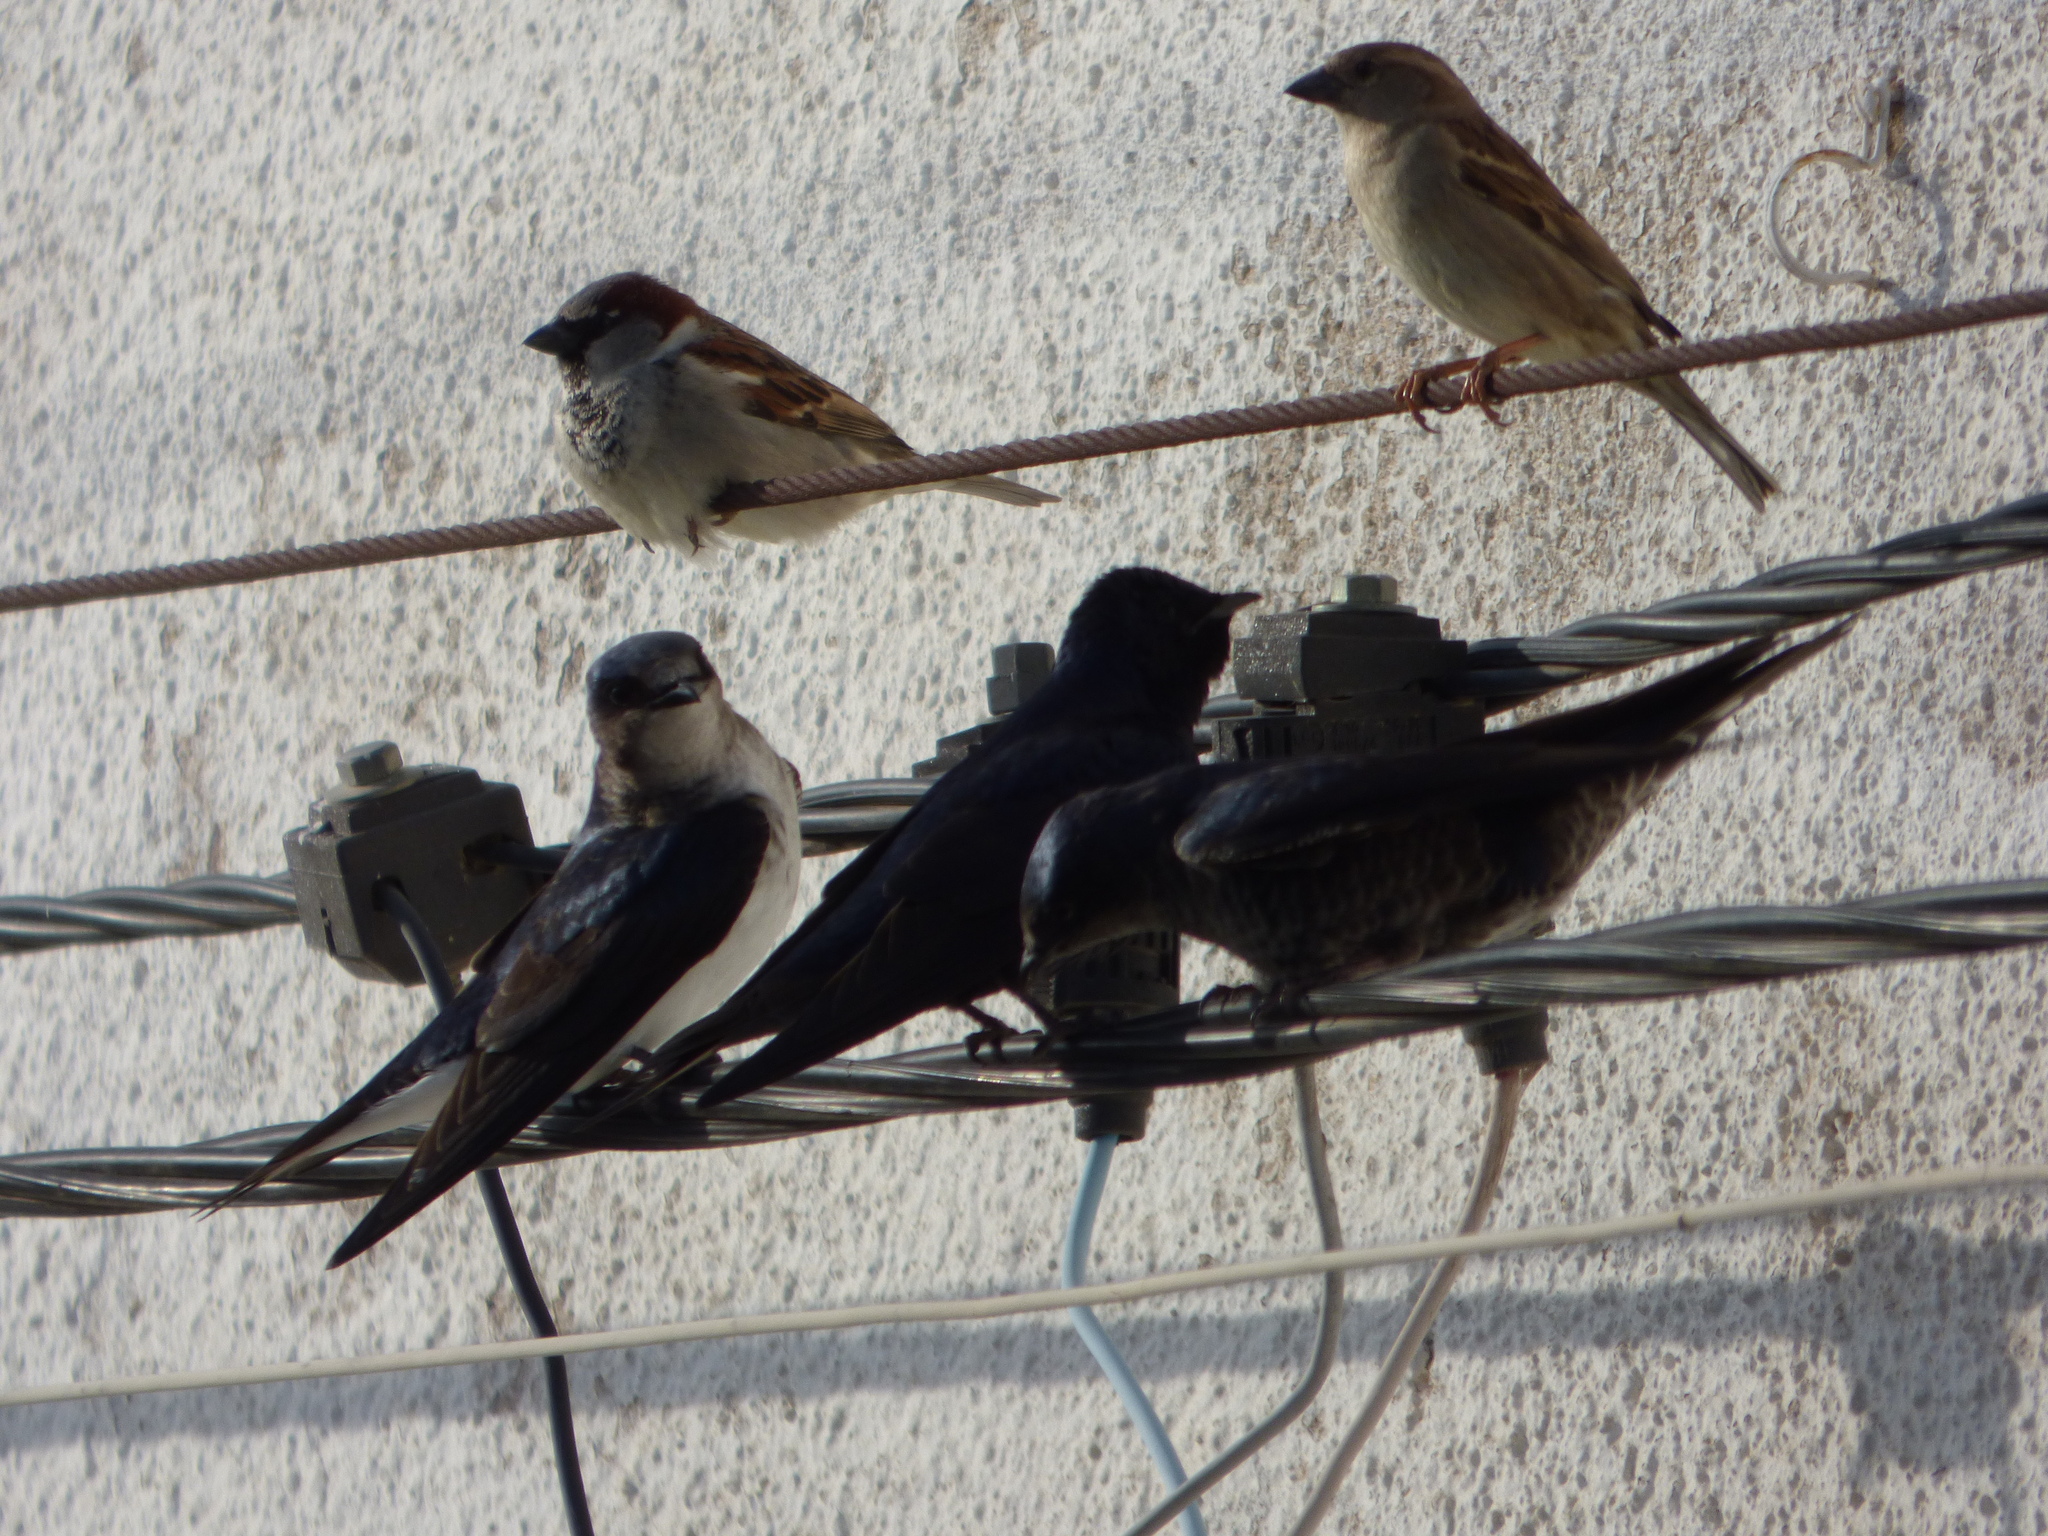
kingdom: Animalia
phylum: Chordata
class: Aves
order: Passeriformes
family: Hirundinidae
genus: Progne
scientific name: Progne elegans
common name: Southern martin
